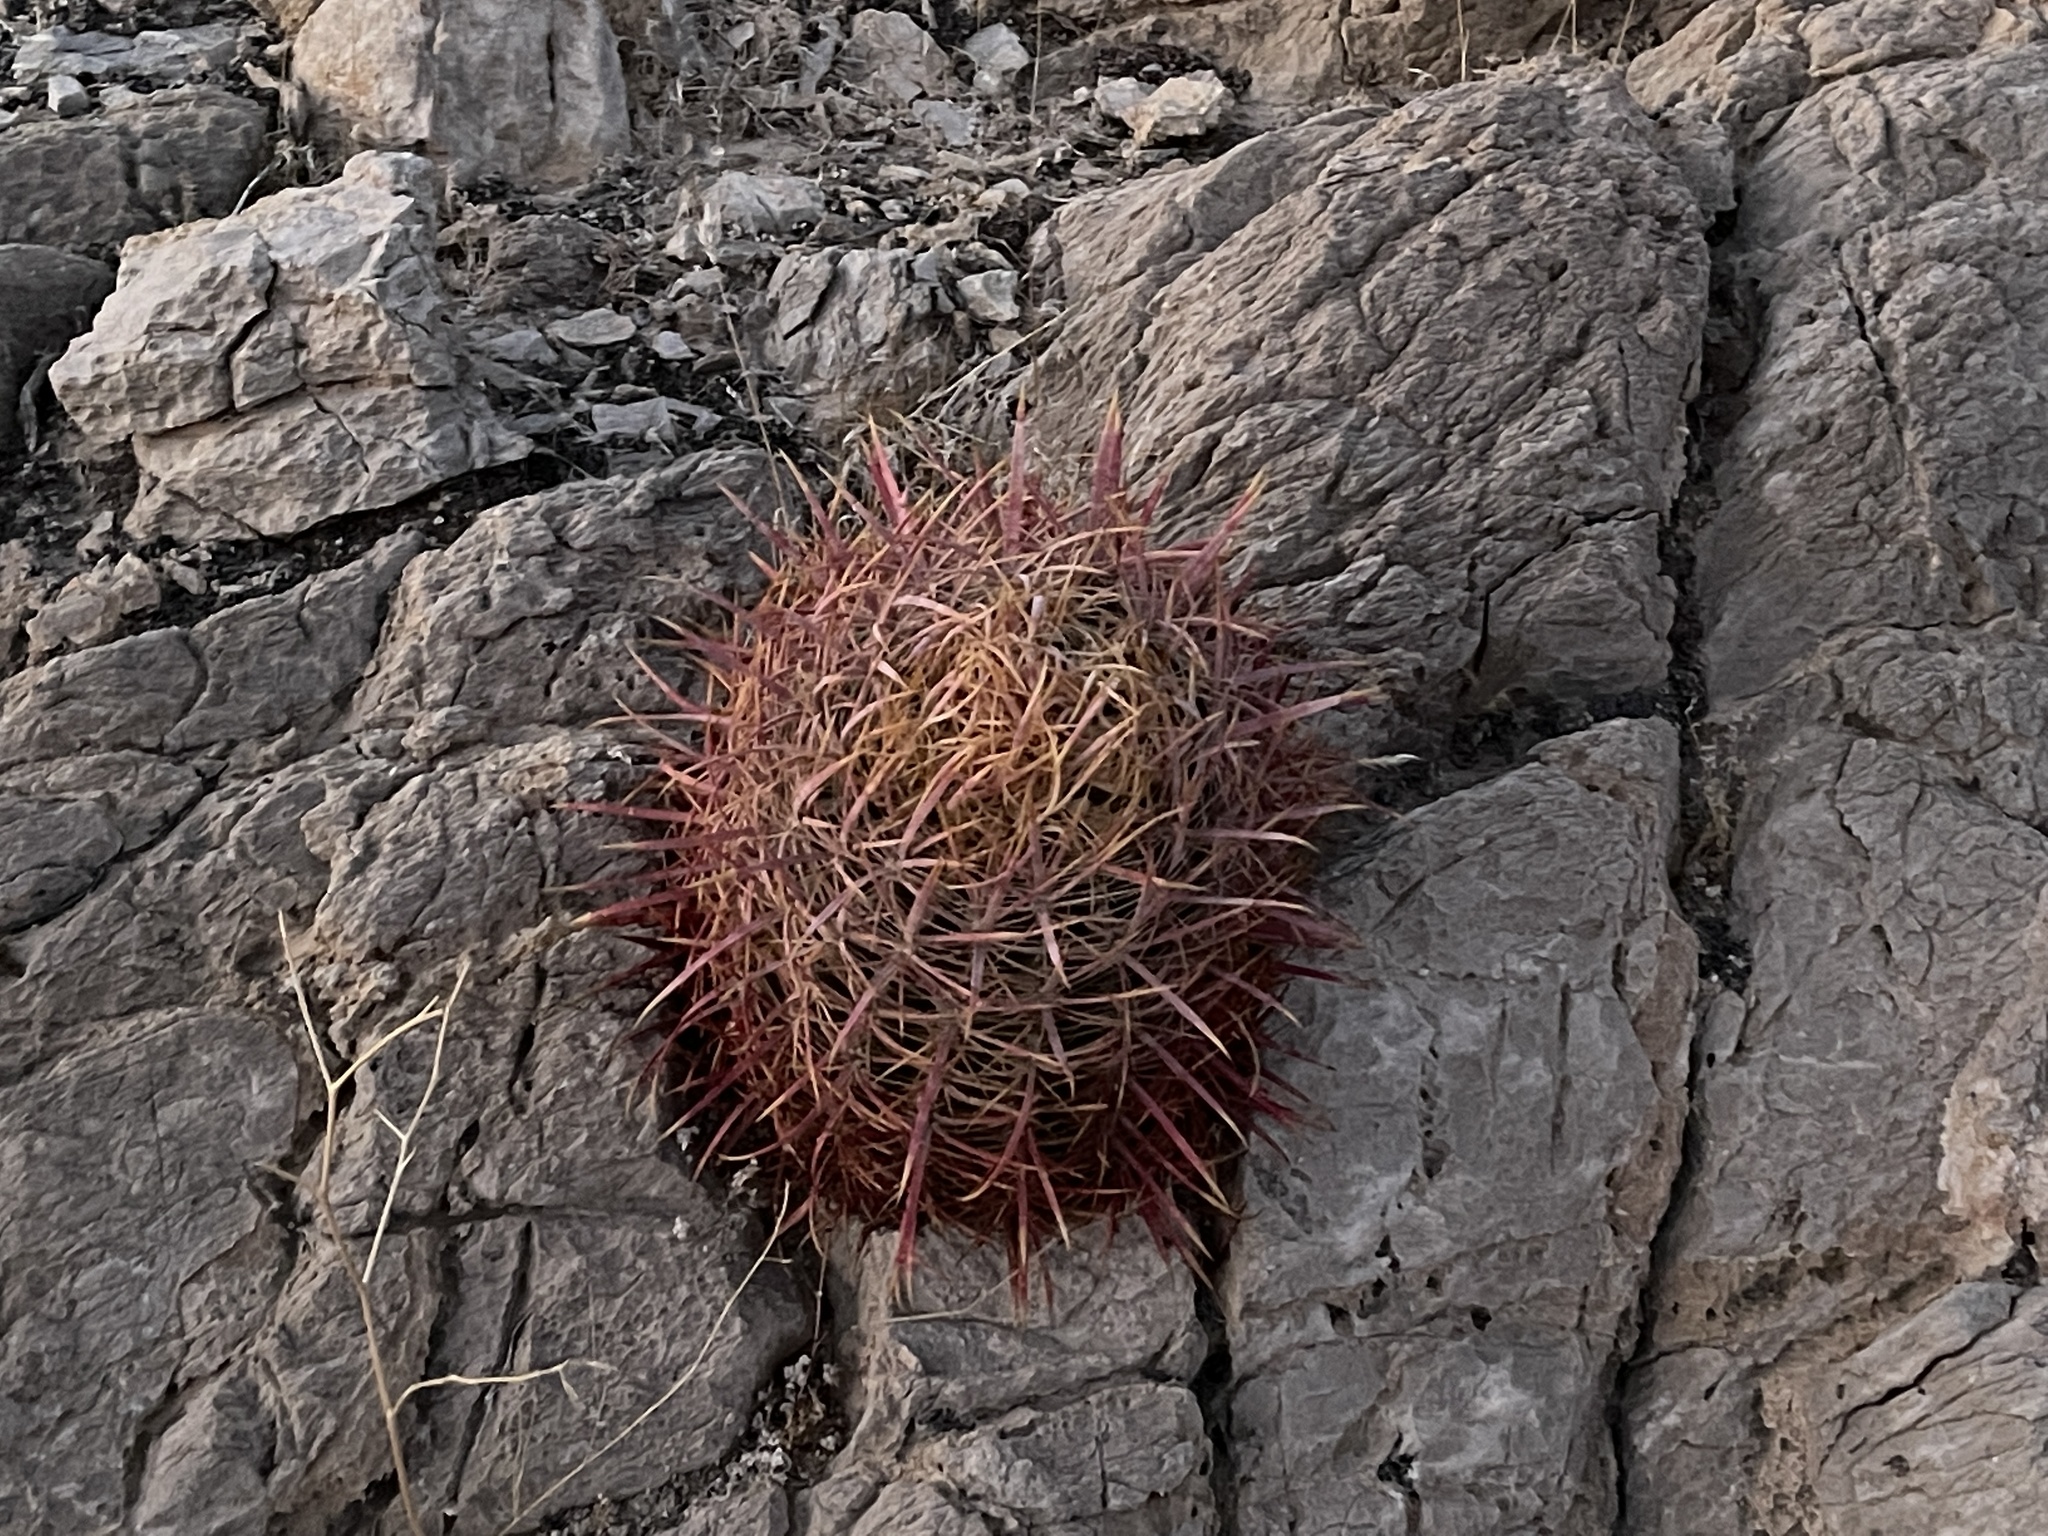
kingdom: Plantae
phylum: Tracheophyta
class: Magnoliopsida
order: Caryophyllales
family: Cactaceae
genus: Ferocactus
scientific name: Ferocactus cylindraceus
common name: California barrel cactus
